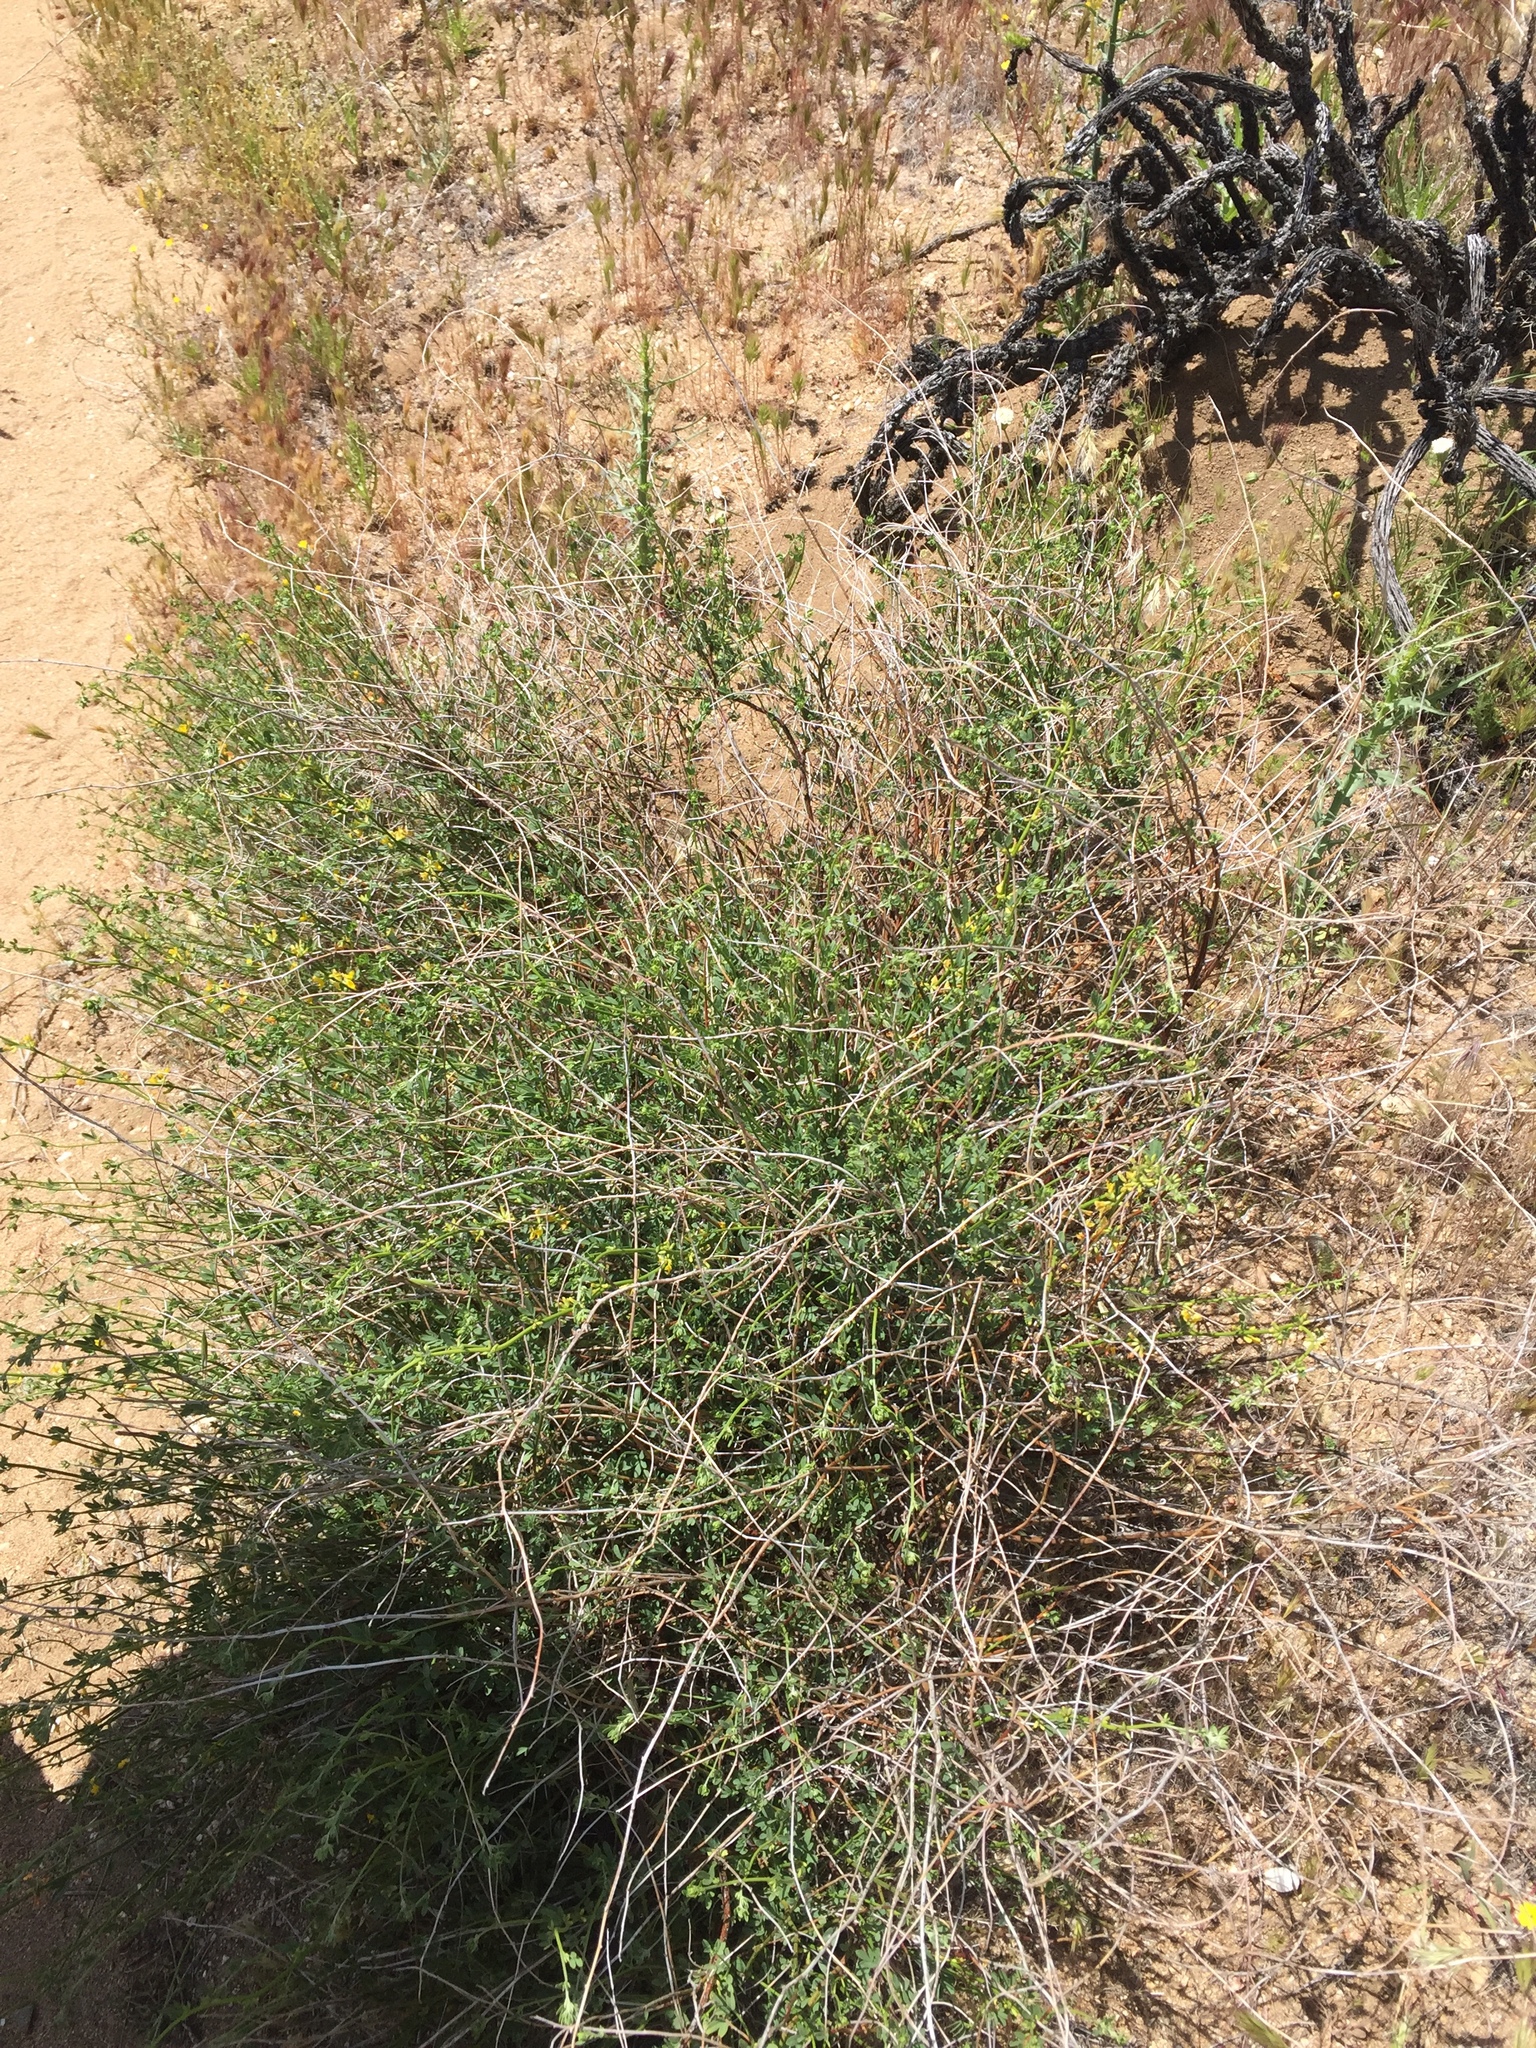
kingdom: Plantae
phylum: Tracheophyta
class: Magnoliopsida
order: Fabales
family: Fabaceae
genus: Acmispon
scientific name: Acmispon glaber
